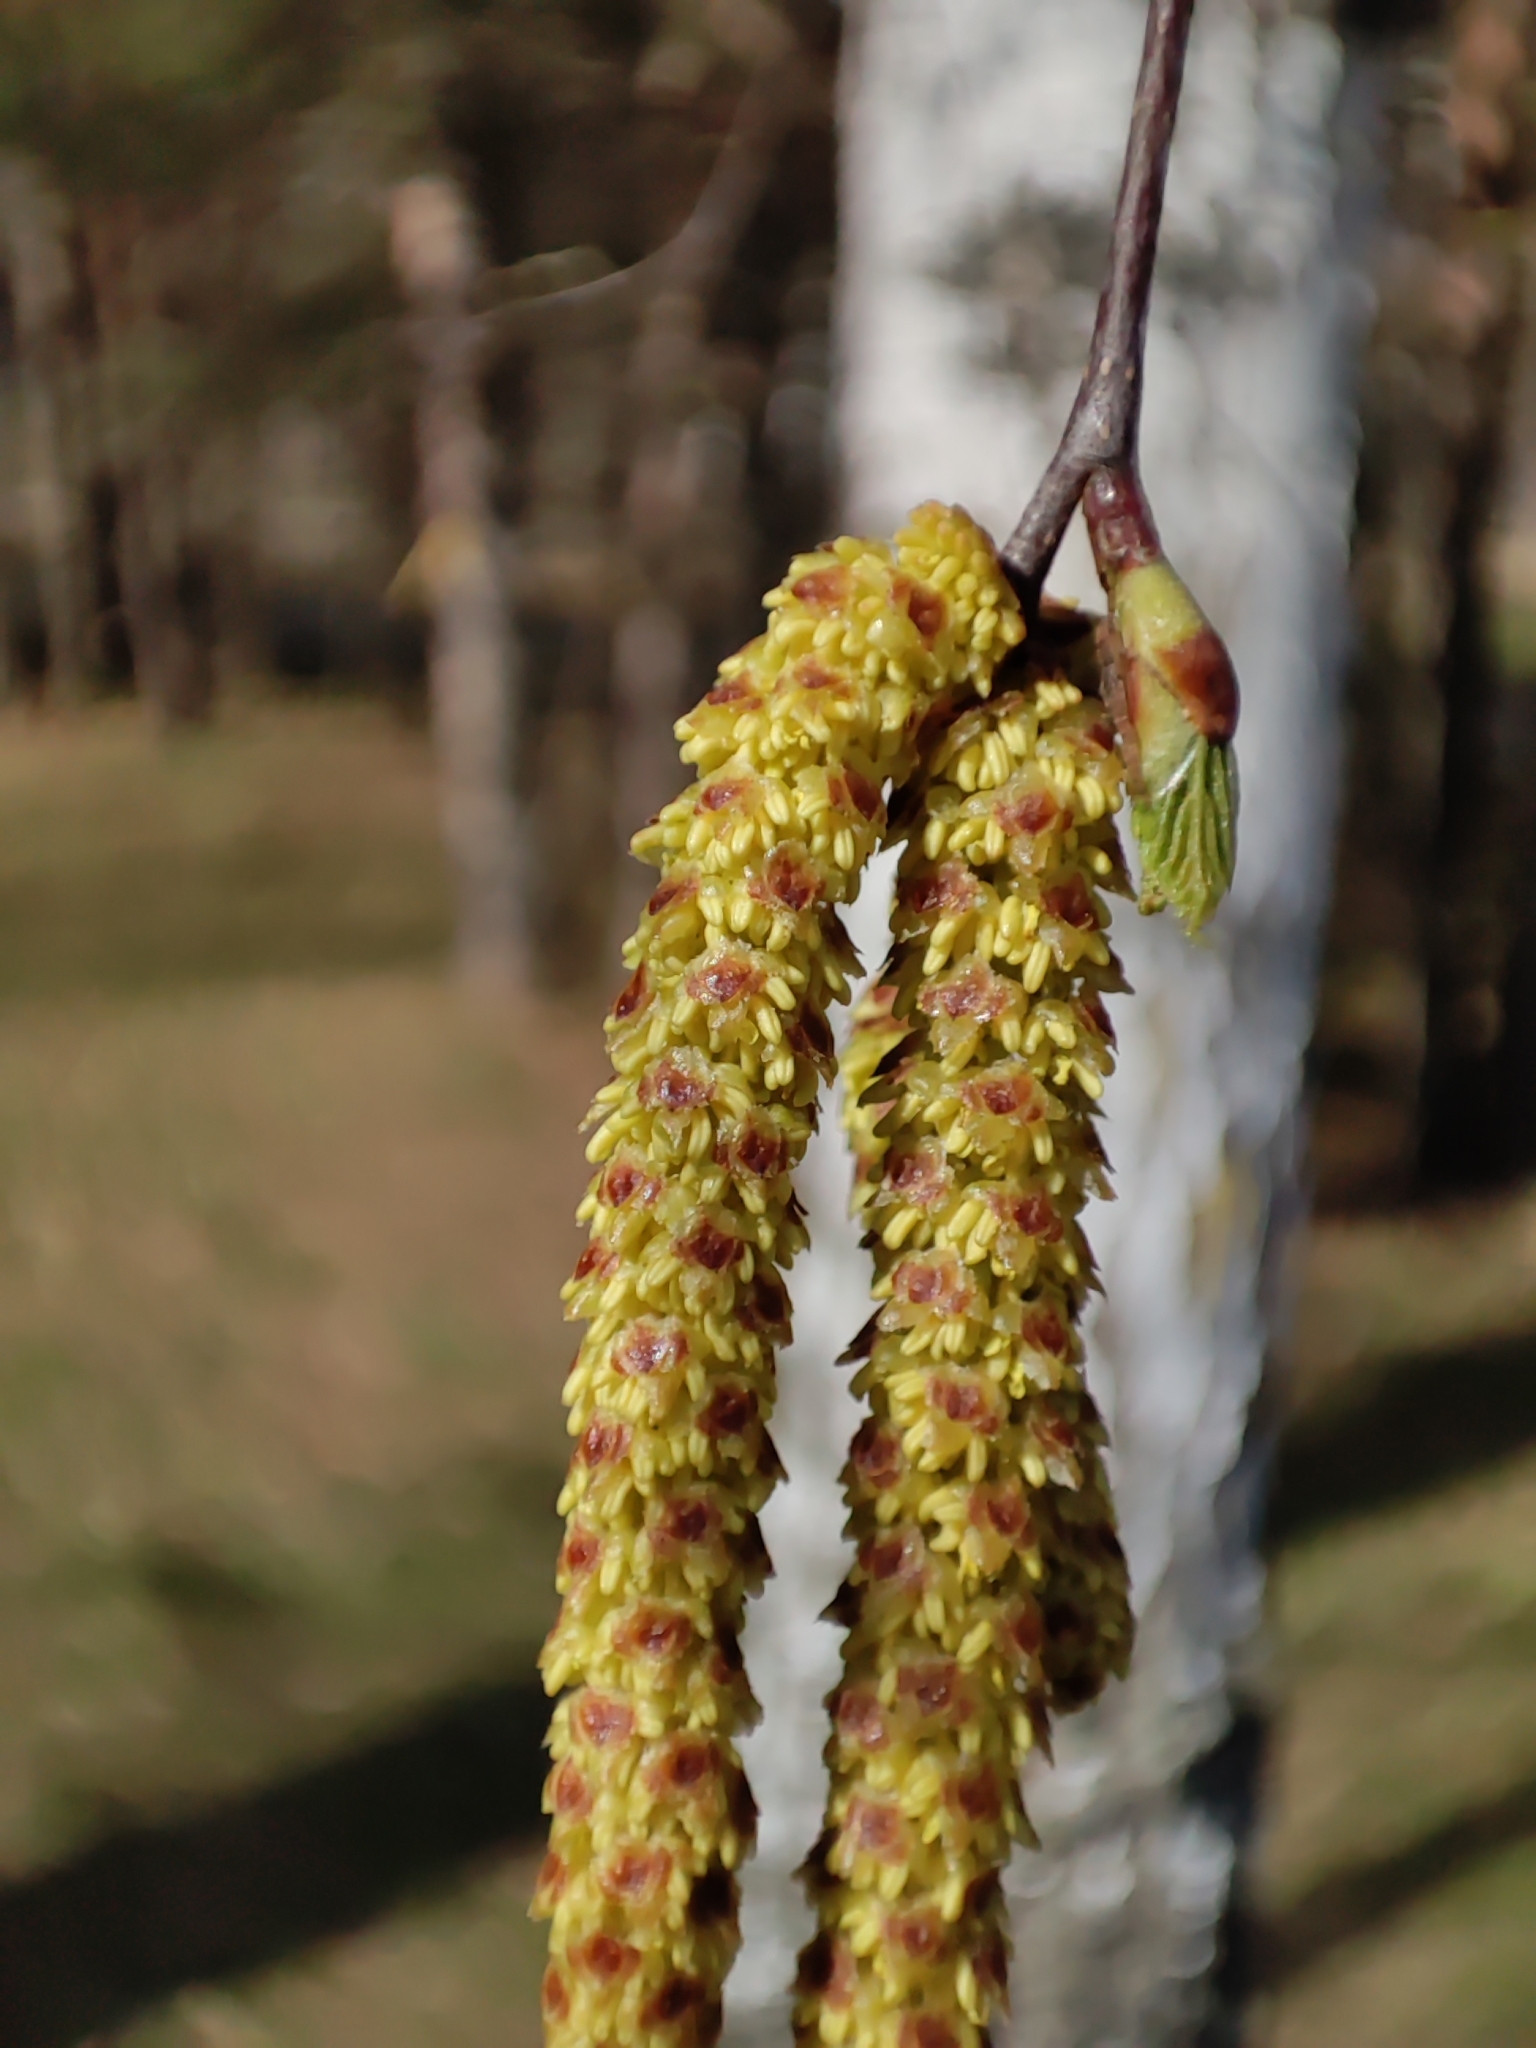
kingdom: Plantae
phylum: Tracheophyta
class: Magnoliopsida
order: Fagales
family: Betulaceae
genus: Betula
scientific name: Betula pendula
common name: Silver birch
